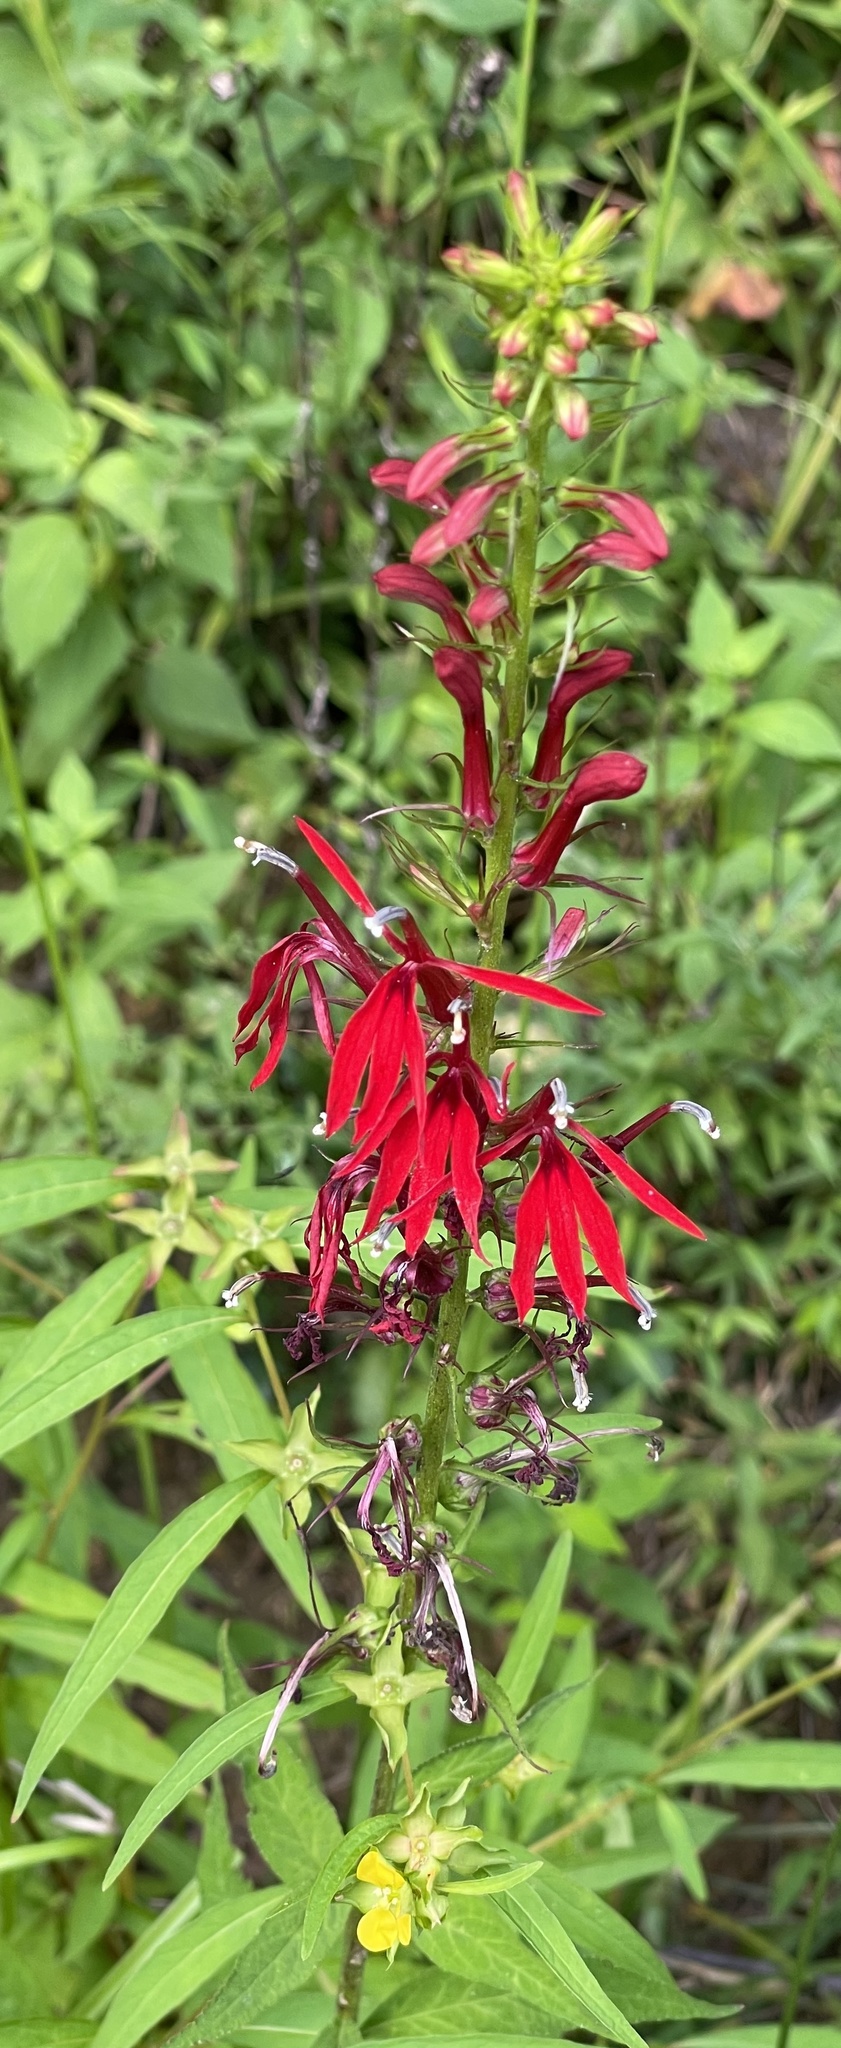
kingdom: Plantae
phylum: Tracheophyta
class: Magnoliopsida
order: Asterales
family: Campanulaceae
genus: Lobelia
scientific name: Lobelia cardinalis
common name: Cardinal flower
